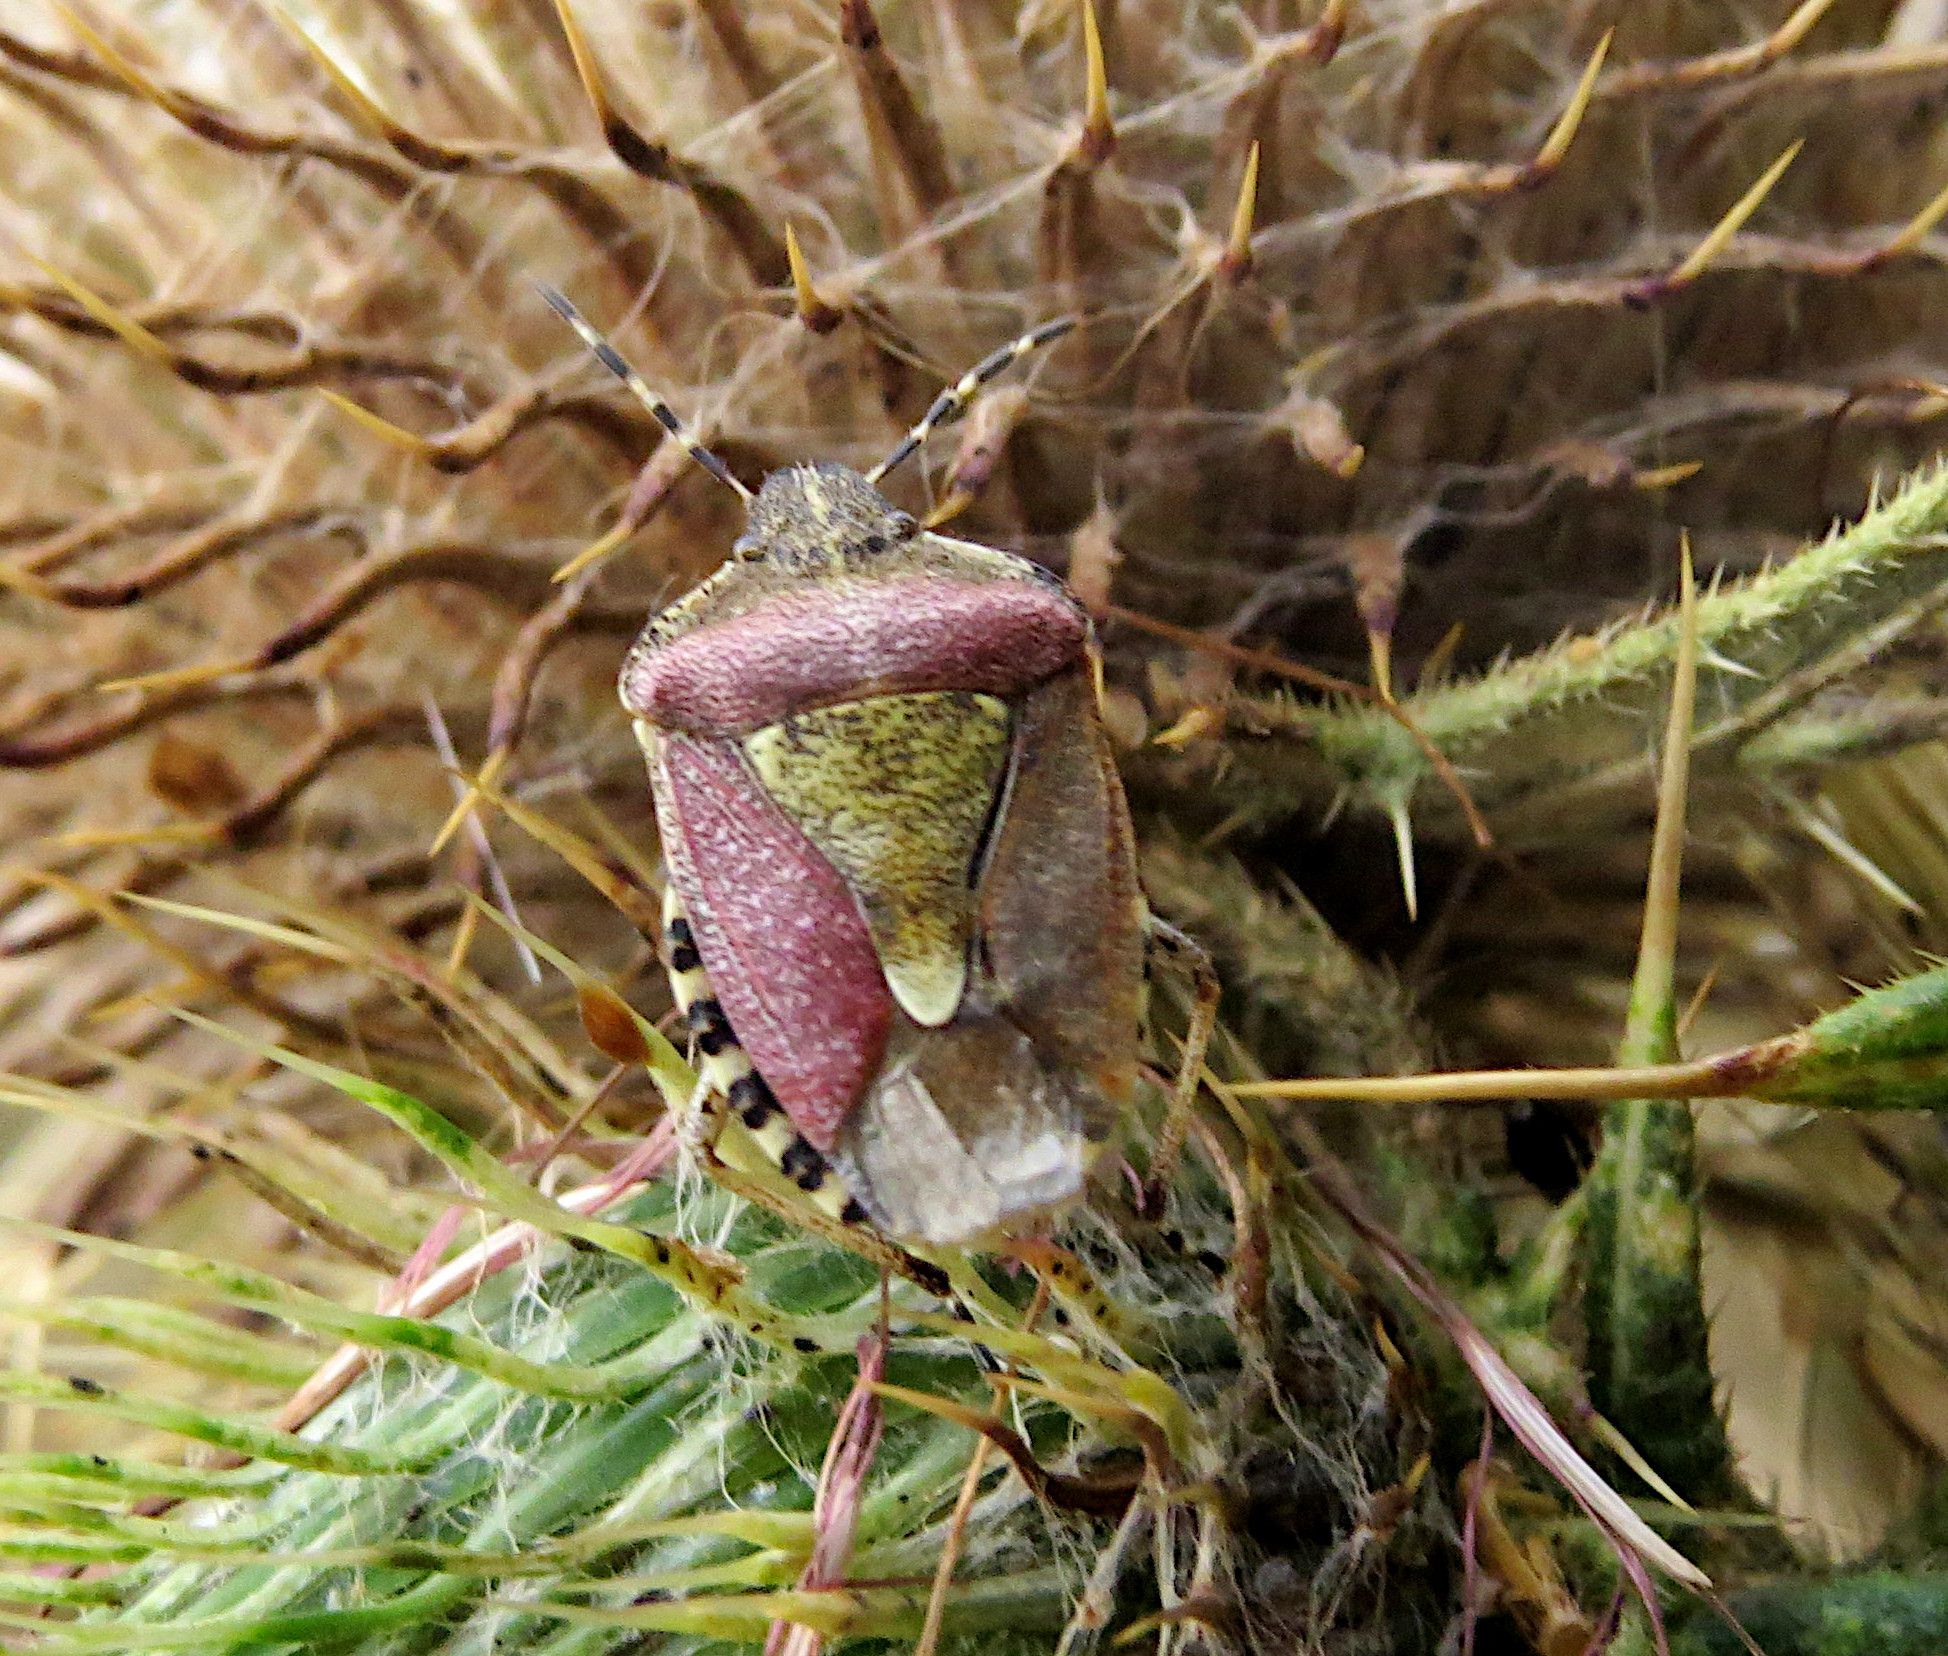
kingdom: Animalia
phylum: Arthropoda
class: Insecta
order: Hemiptera
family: Pentatomidae
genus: Dolycoris
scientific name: Dolycoris baccarum
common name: Sloe bug
